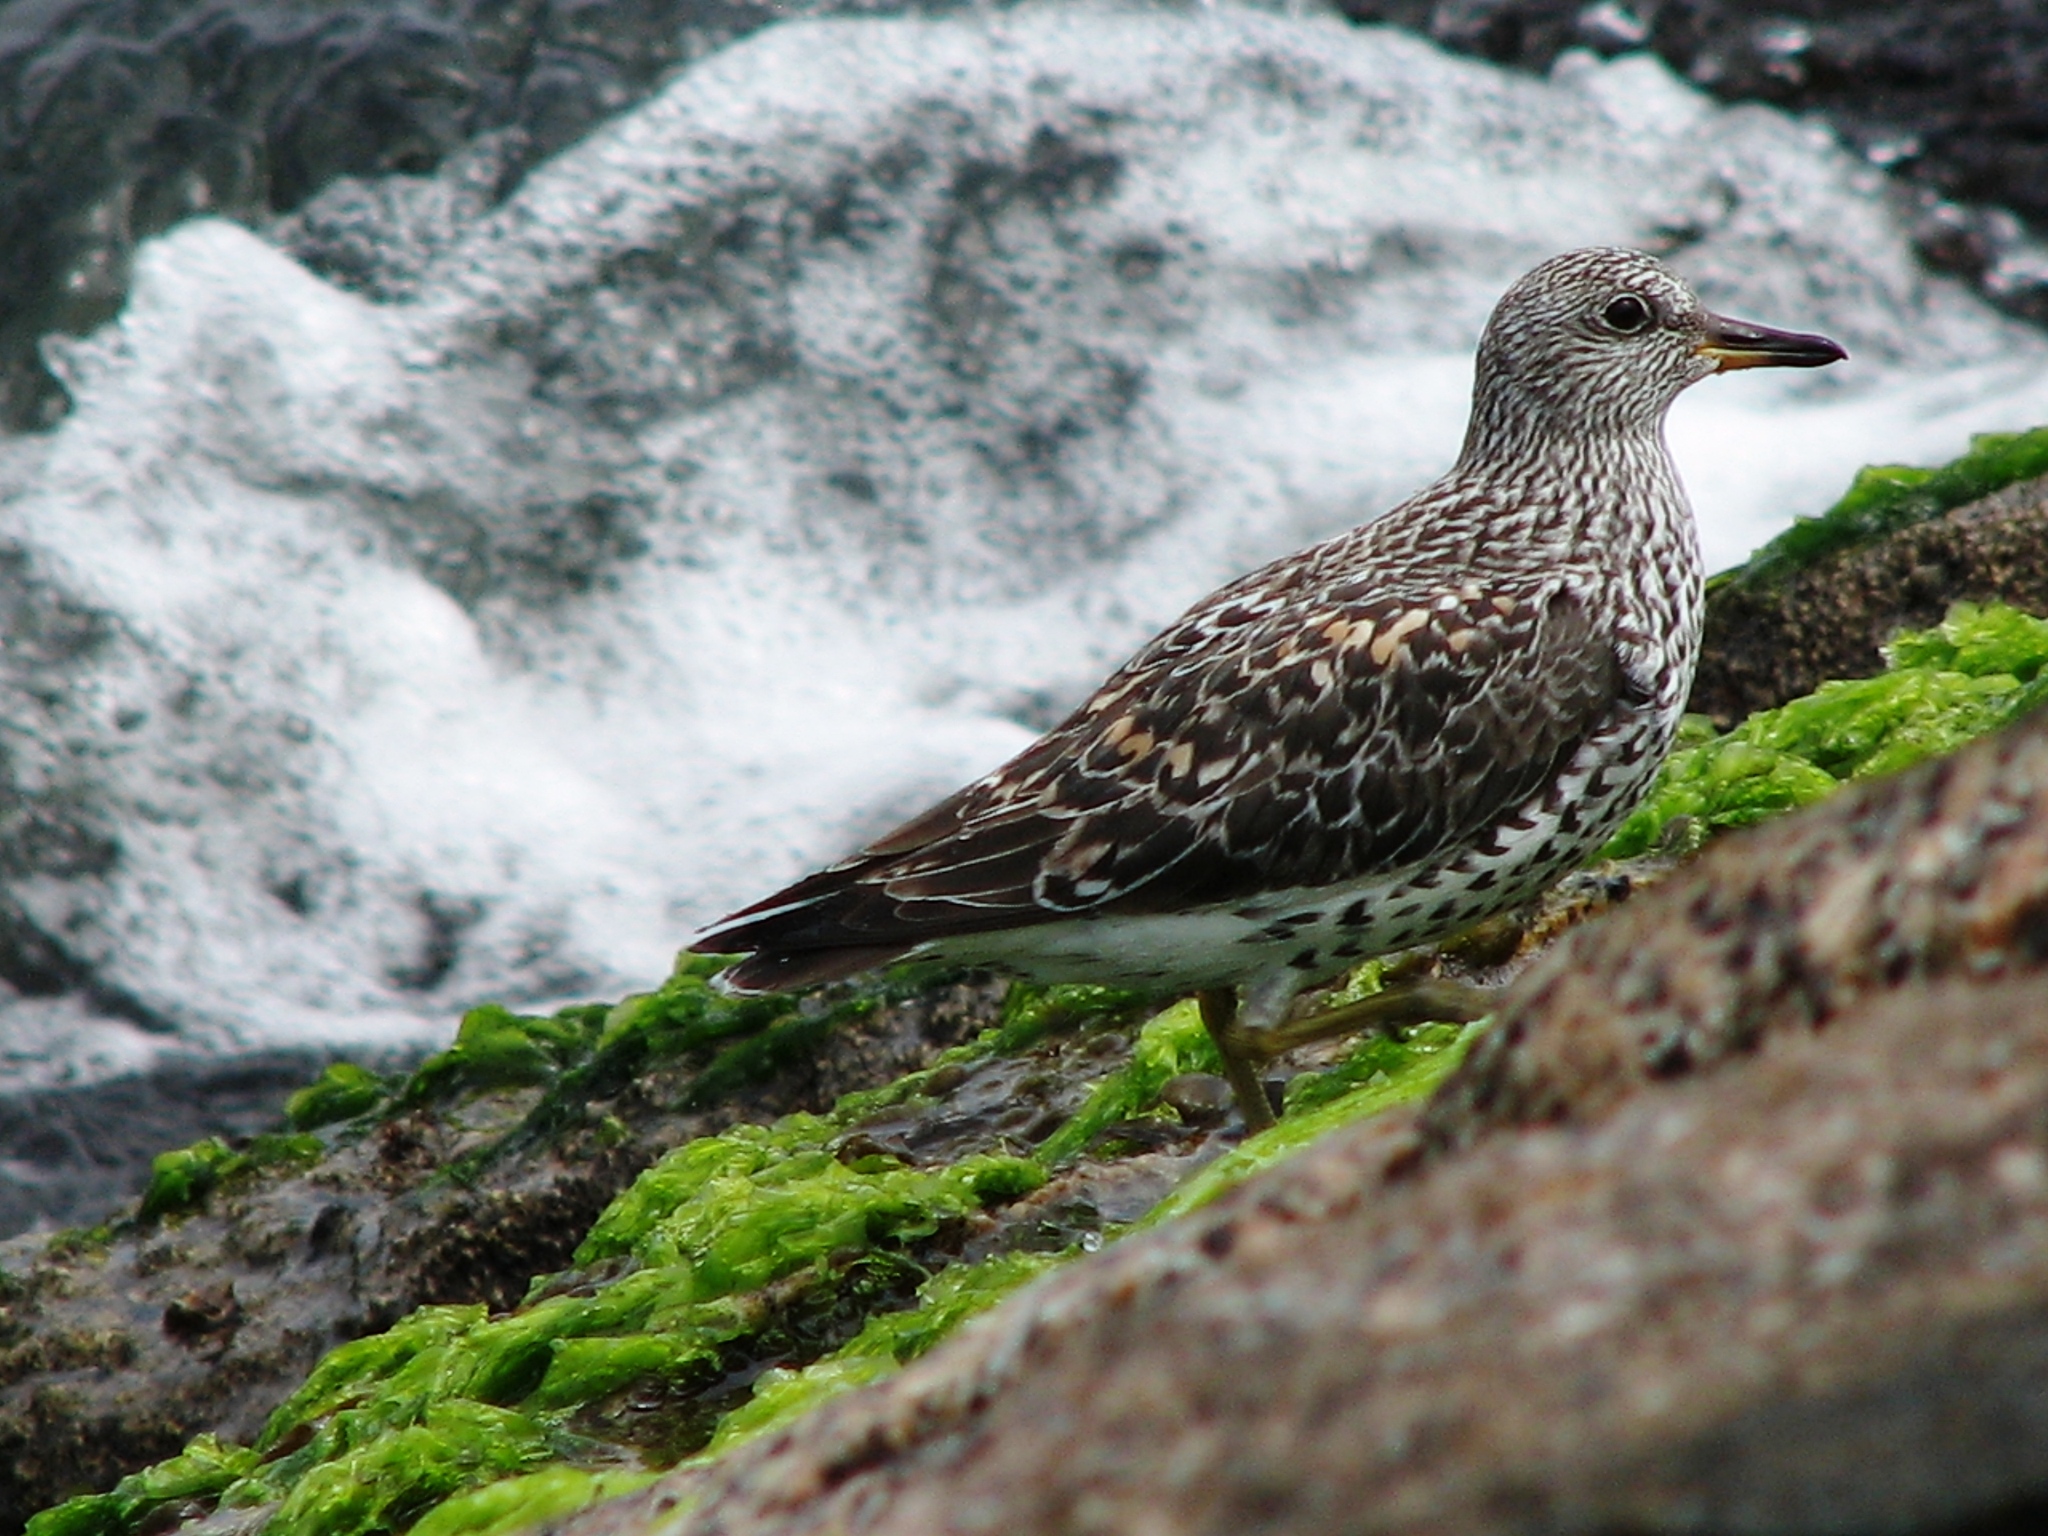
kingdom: Animalia
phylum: Chordata
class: Aves
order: Charadriiformes
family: Scolopacidae
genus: Calidris
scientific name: Calidris virgata
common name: Surfbird
